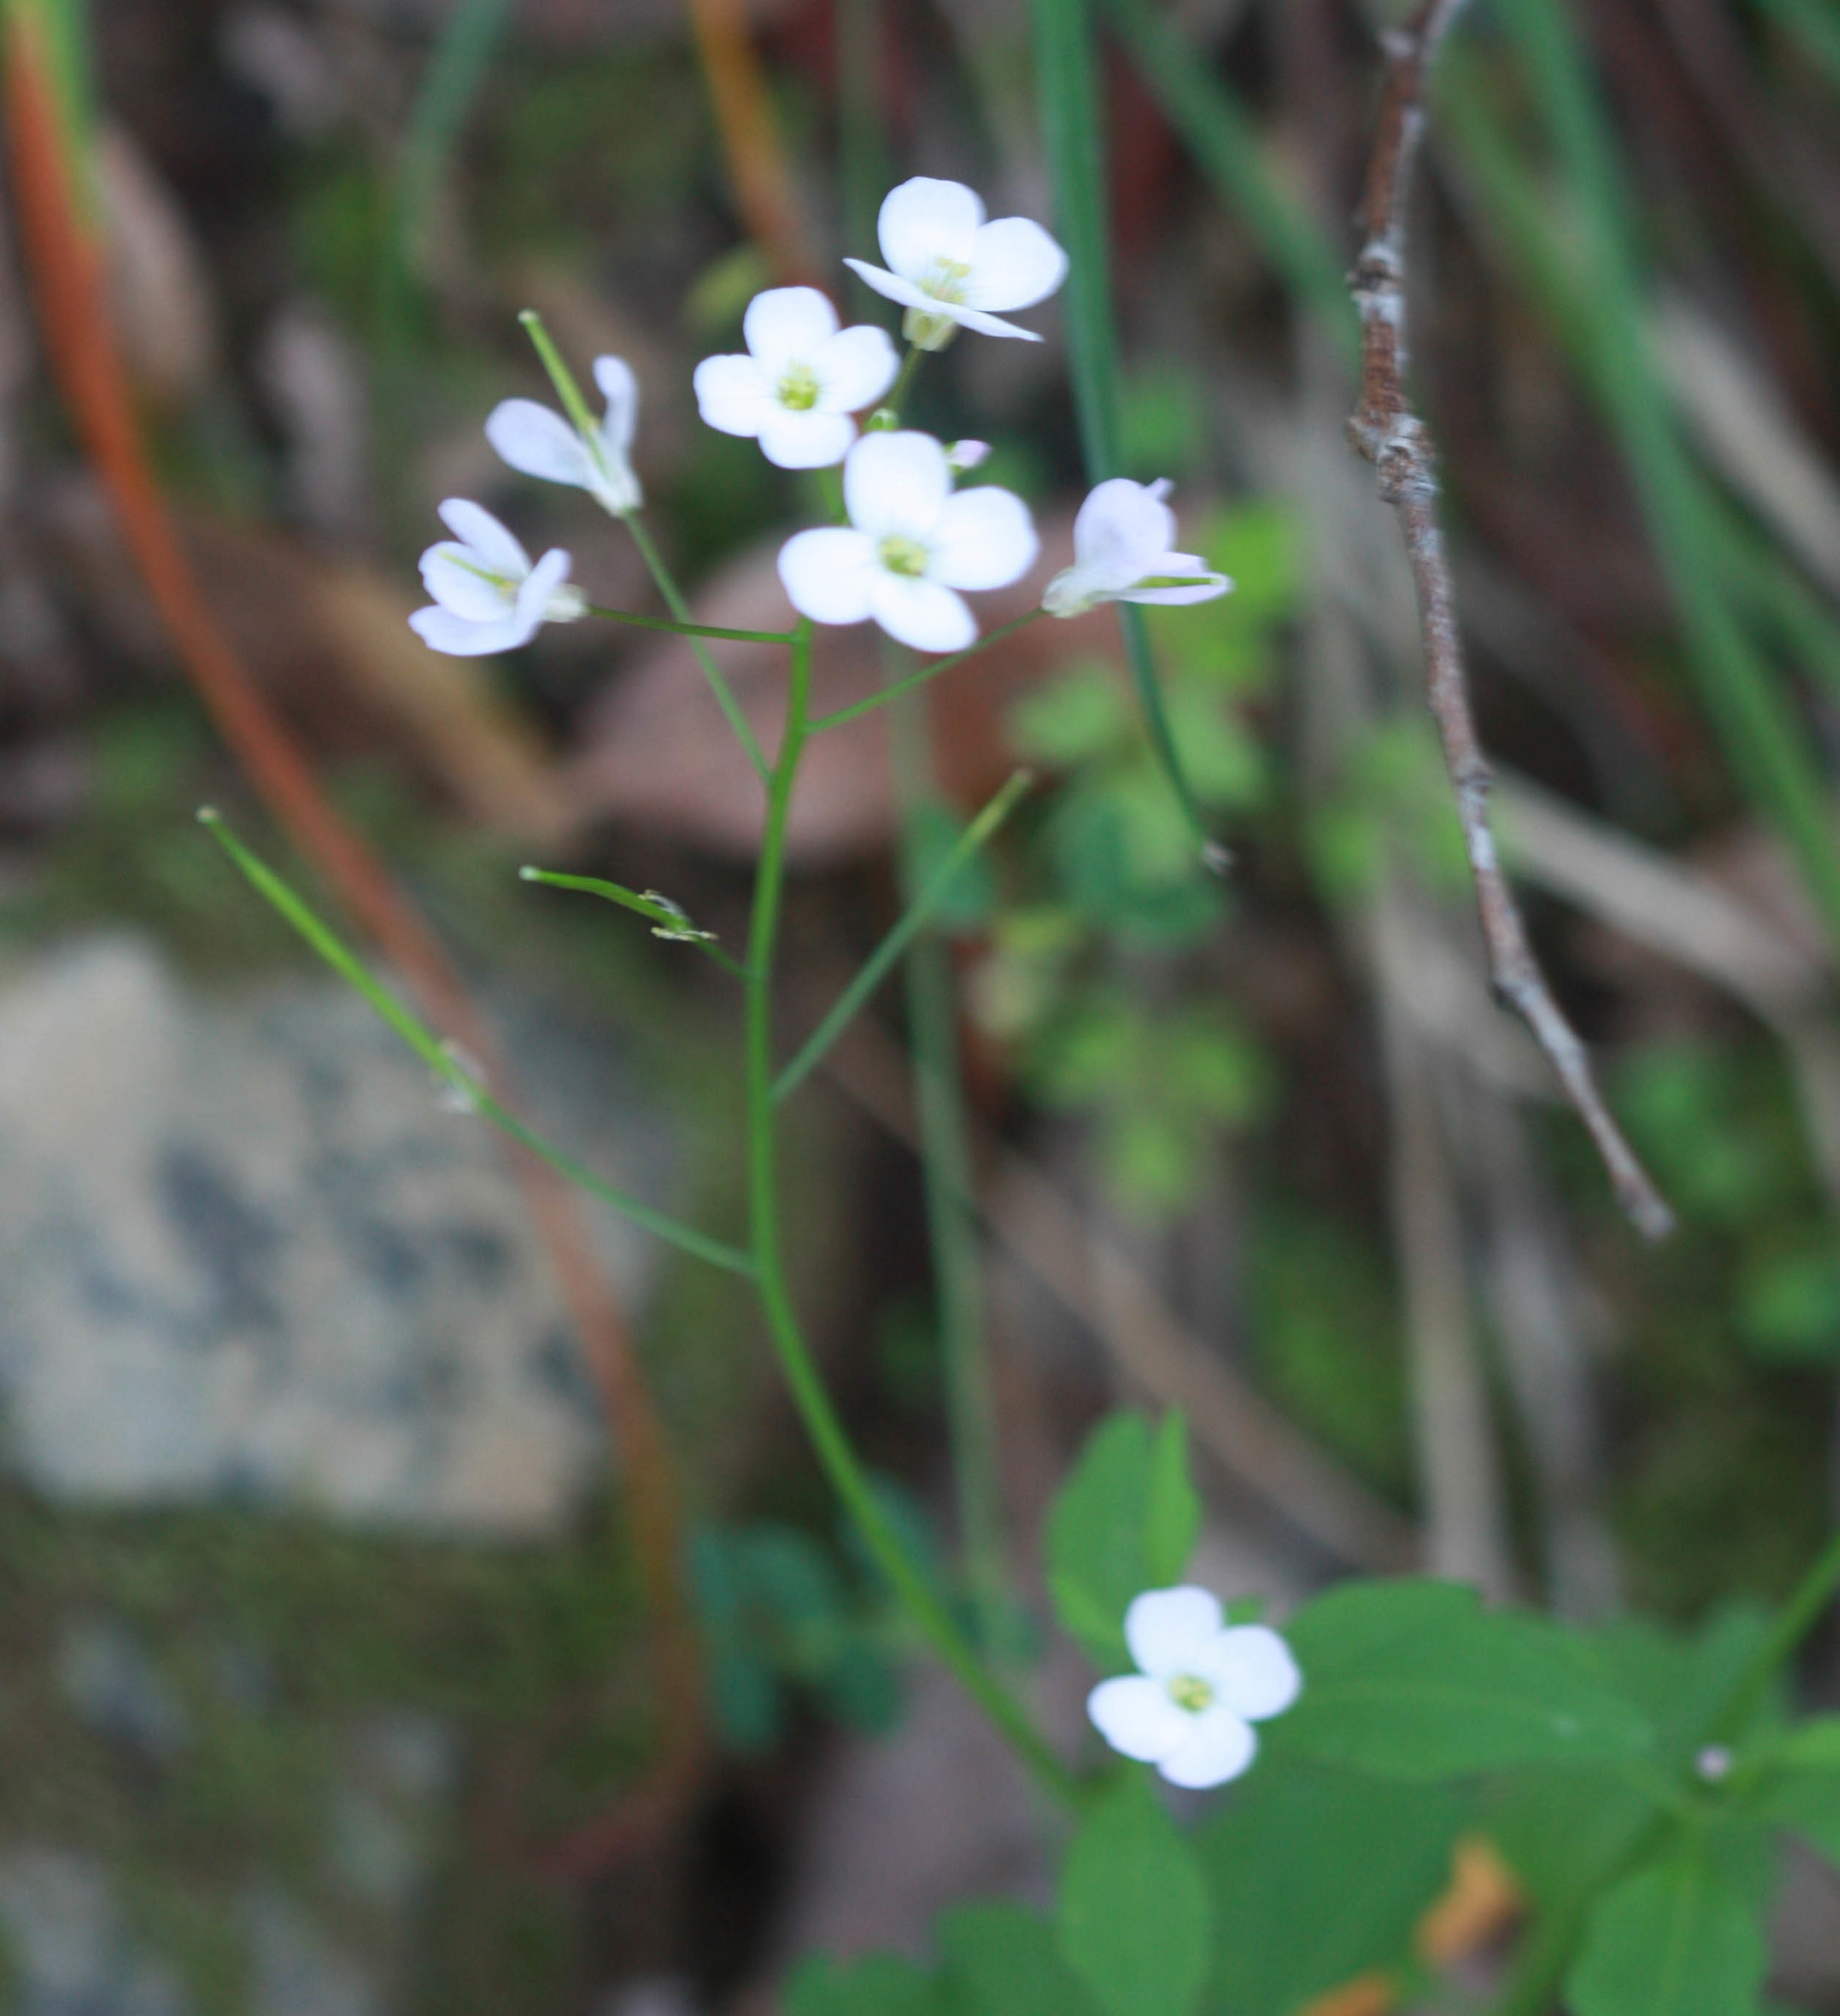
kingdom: Plantae
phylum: Tracheophyta
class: Magnoliopsida
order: Brassicales
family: Brassicaceae
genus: Cardamine
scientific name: Cardamine californica
